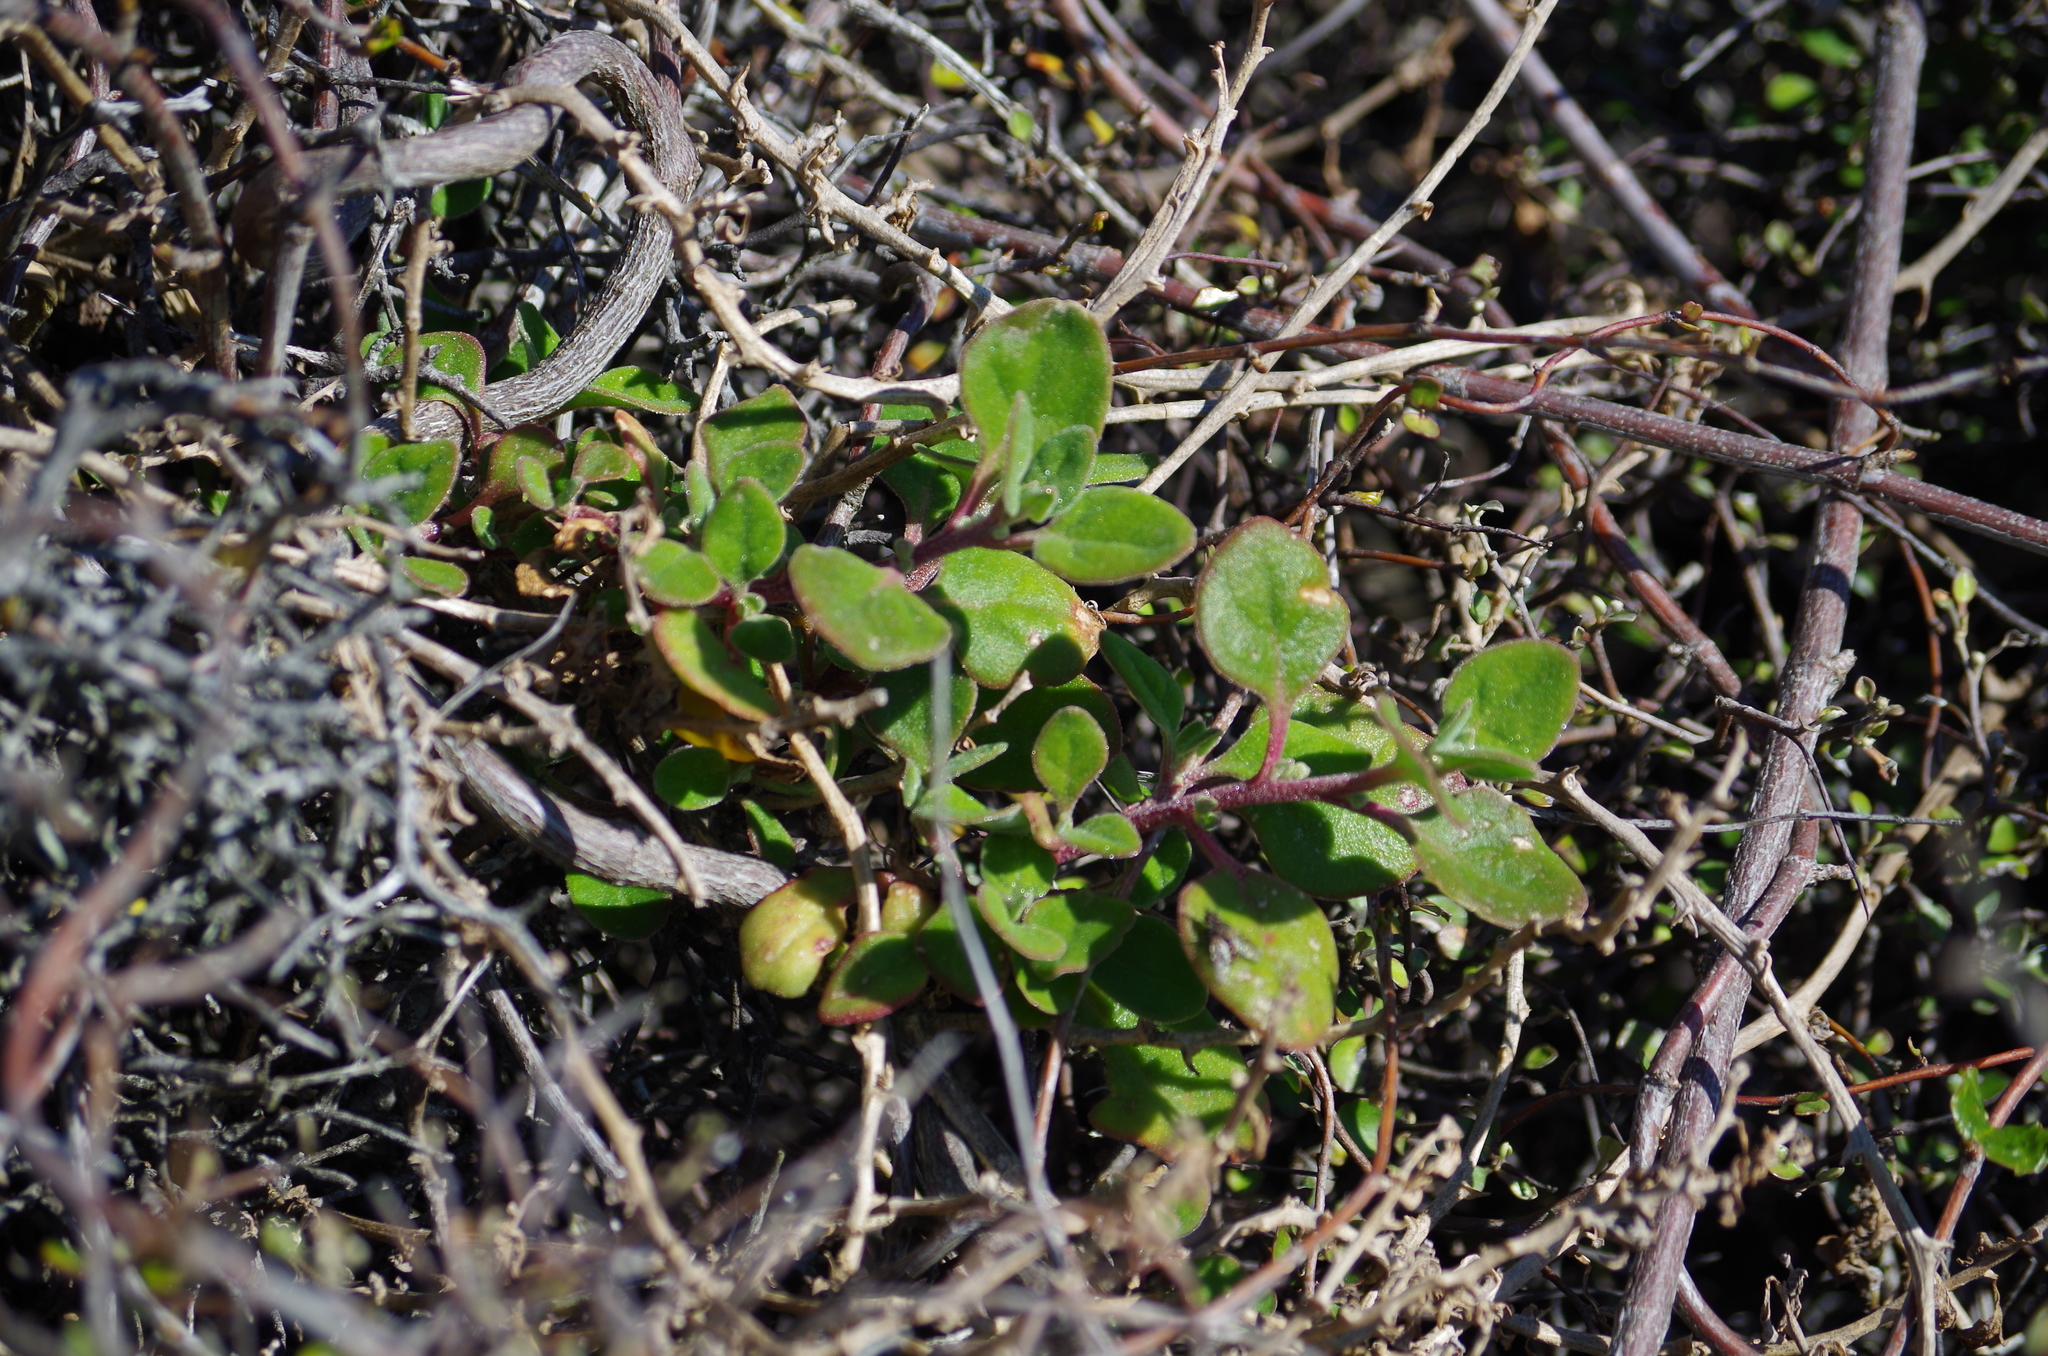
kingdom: Plantae
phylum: Tracheophyta
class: Magnoliopsida
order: Caryophyllales
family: Aizoaceae
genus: Tetragonia
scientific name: Tetragonia implexicoma
